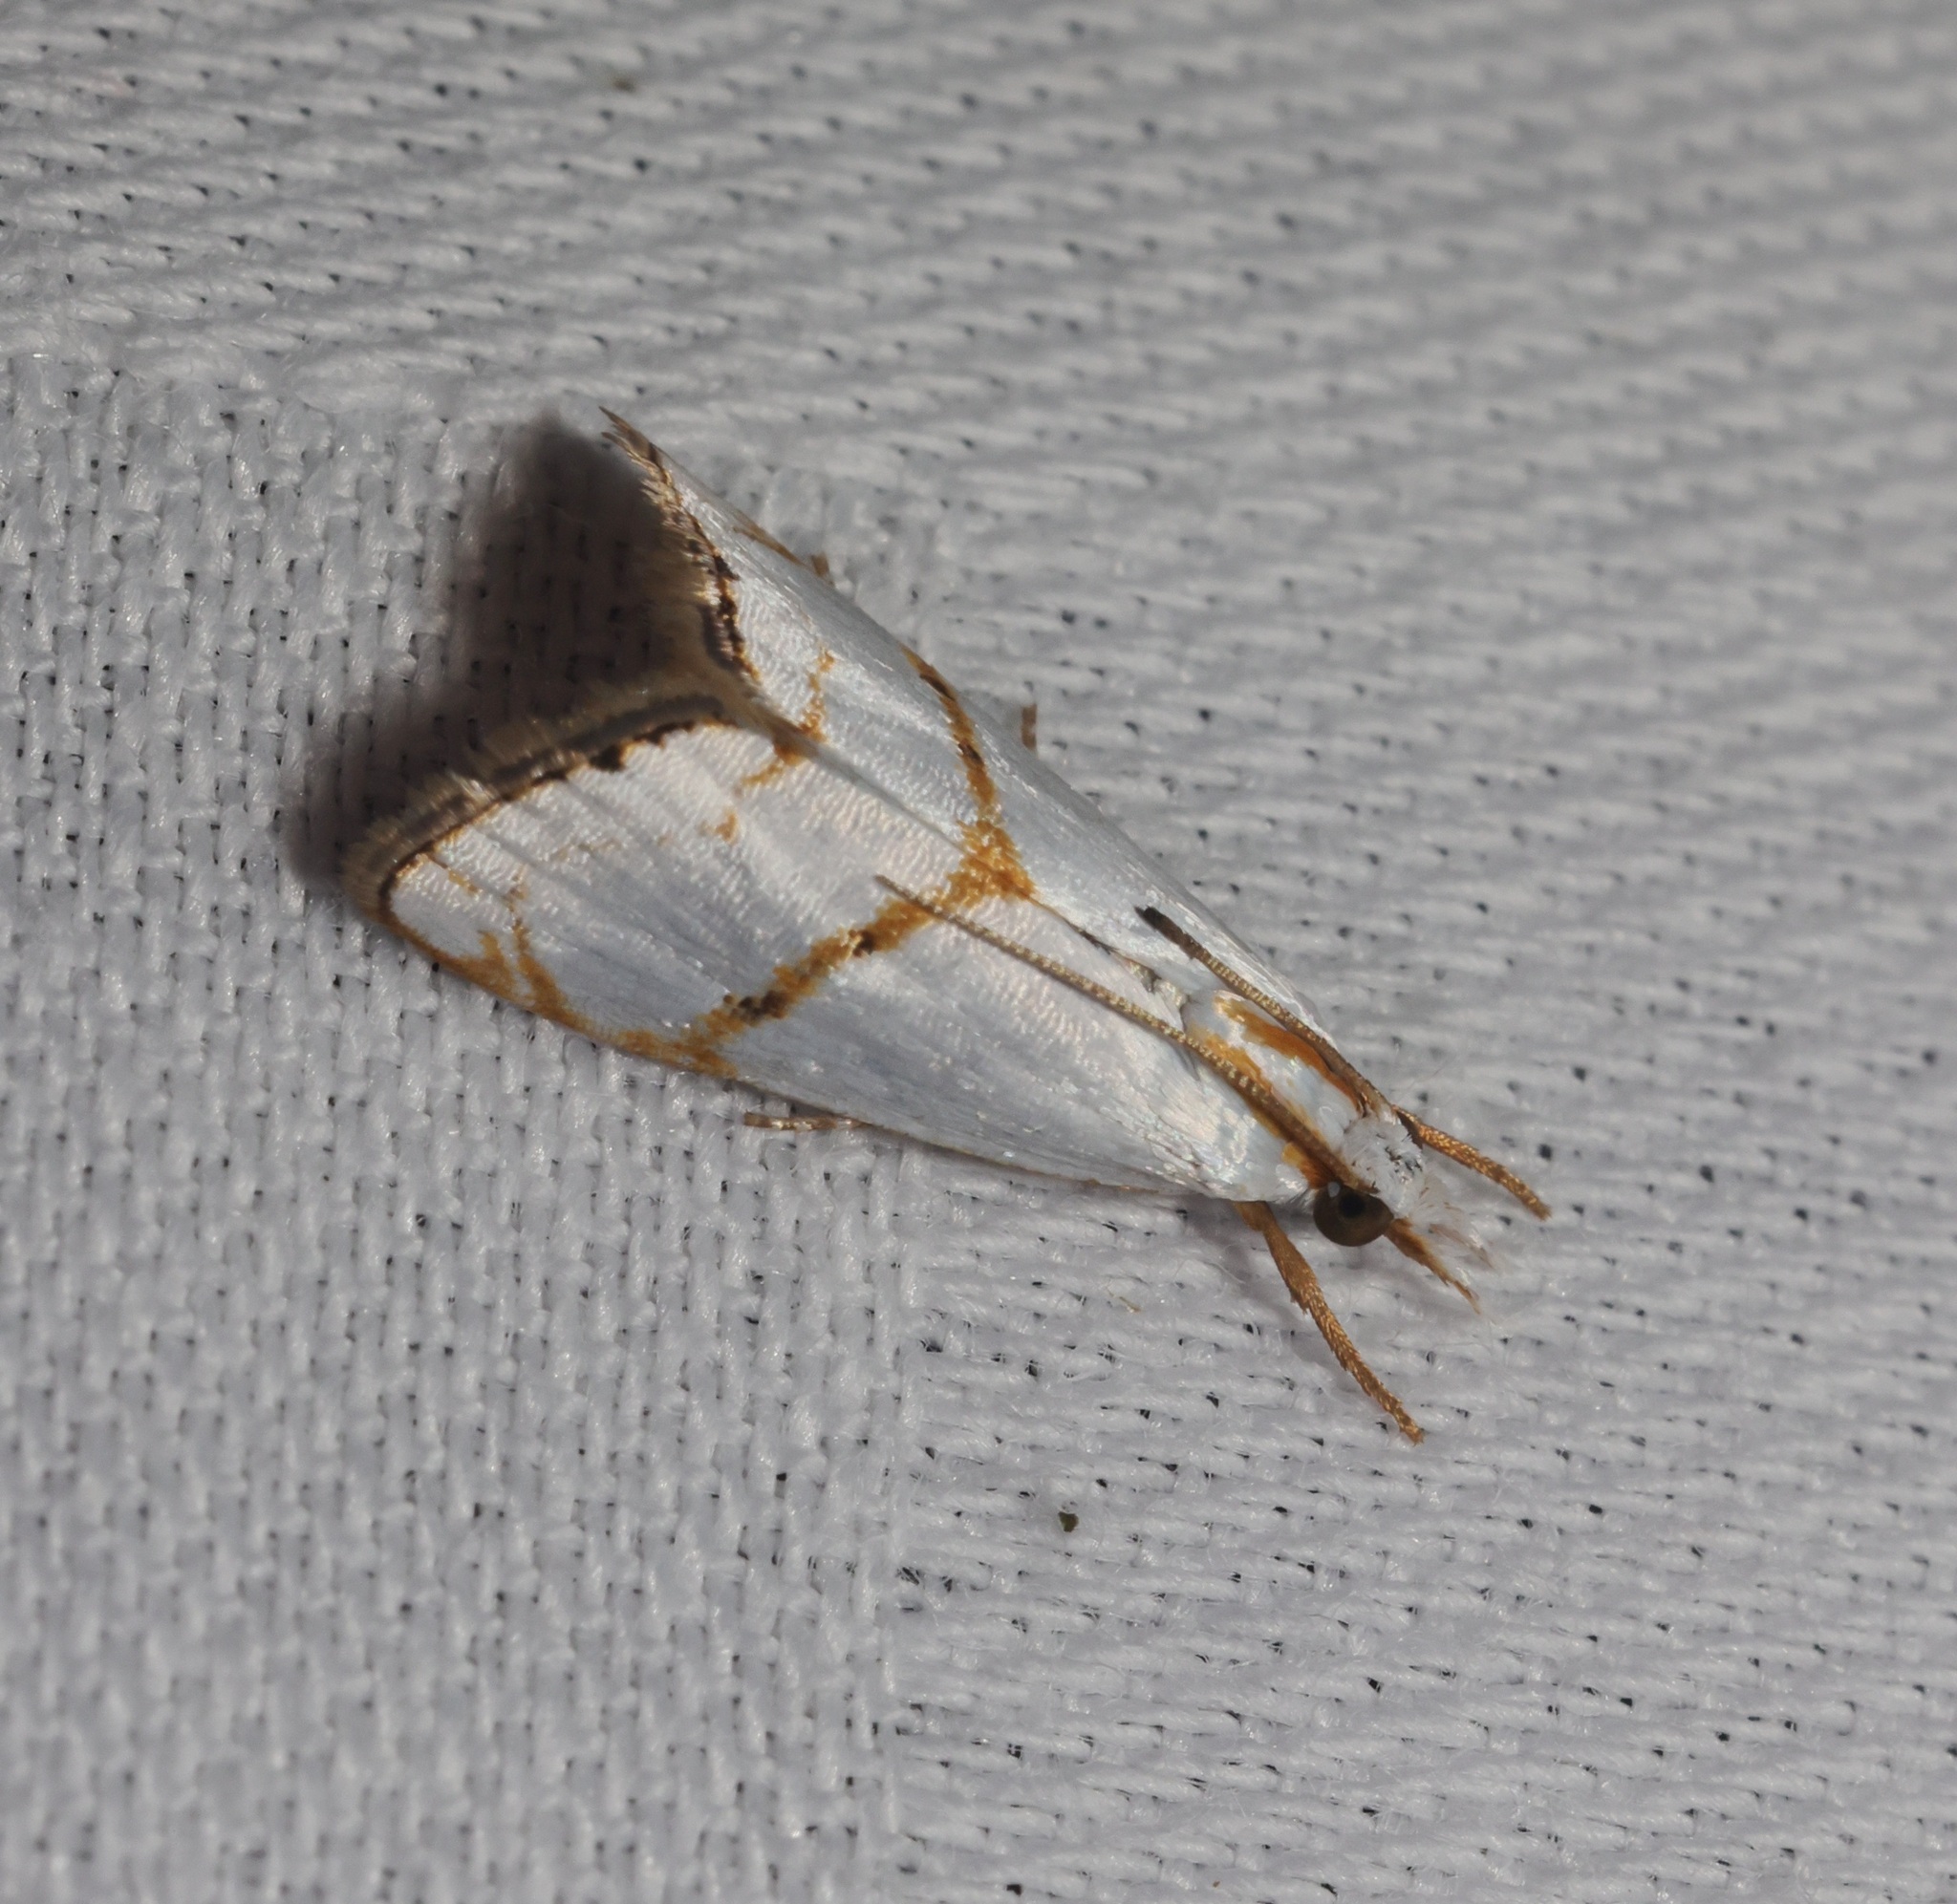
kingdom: Animalia
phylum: Arthropoda
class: Insecta
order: Lepidoptera
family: Crambidae
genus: Pseudargyria
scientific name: Pseudargyria interruptella
